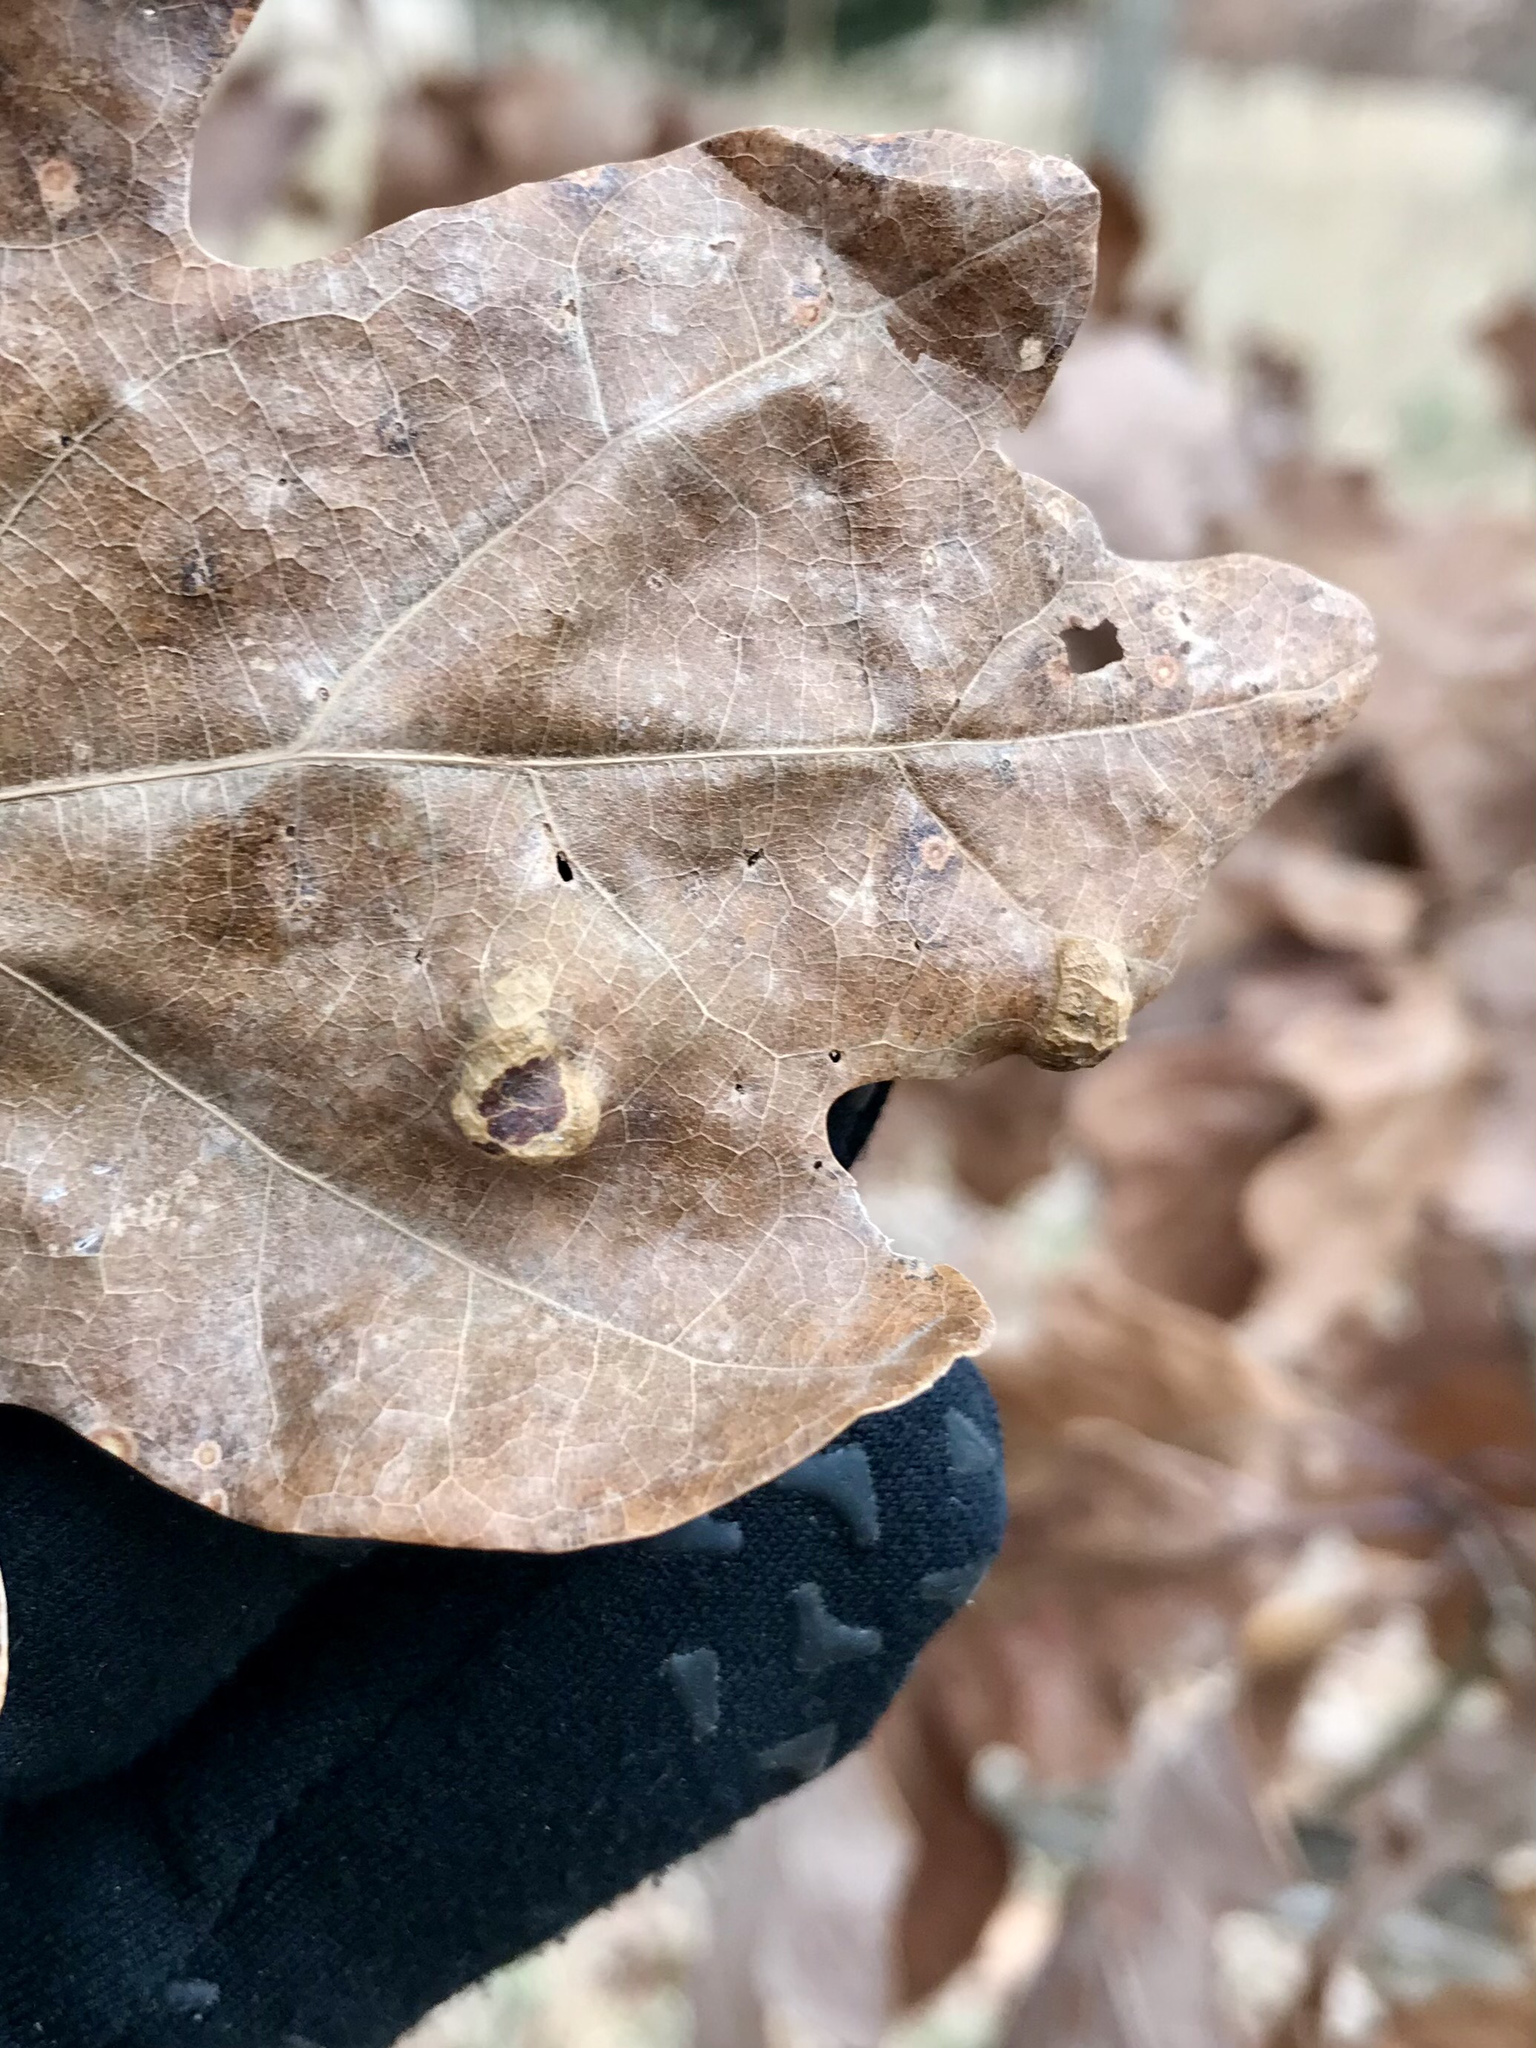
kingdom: Animalia
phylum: Arthropoda
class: Arachnida
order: Trombidiformes
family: Eriophyidae
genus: Aceria
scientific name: Aceria
